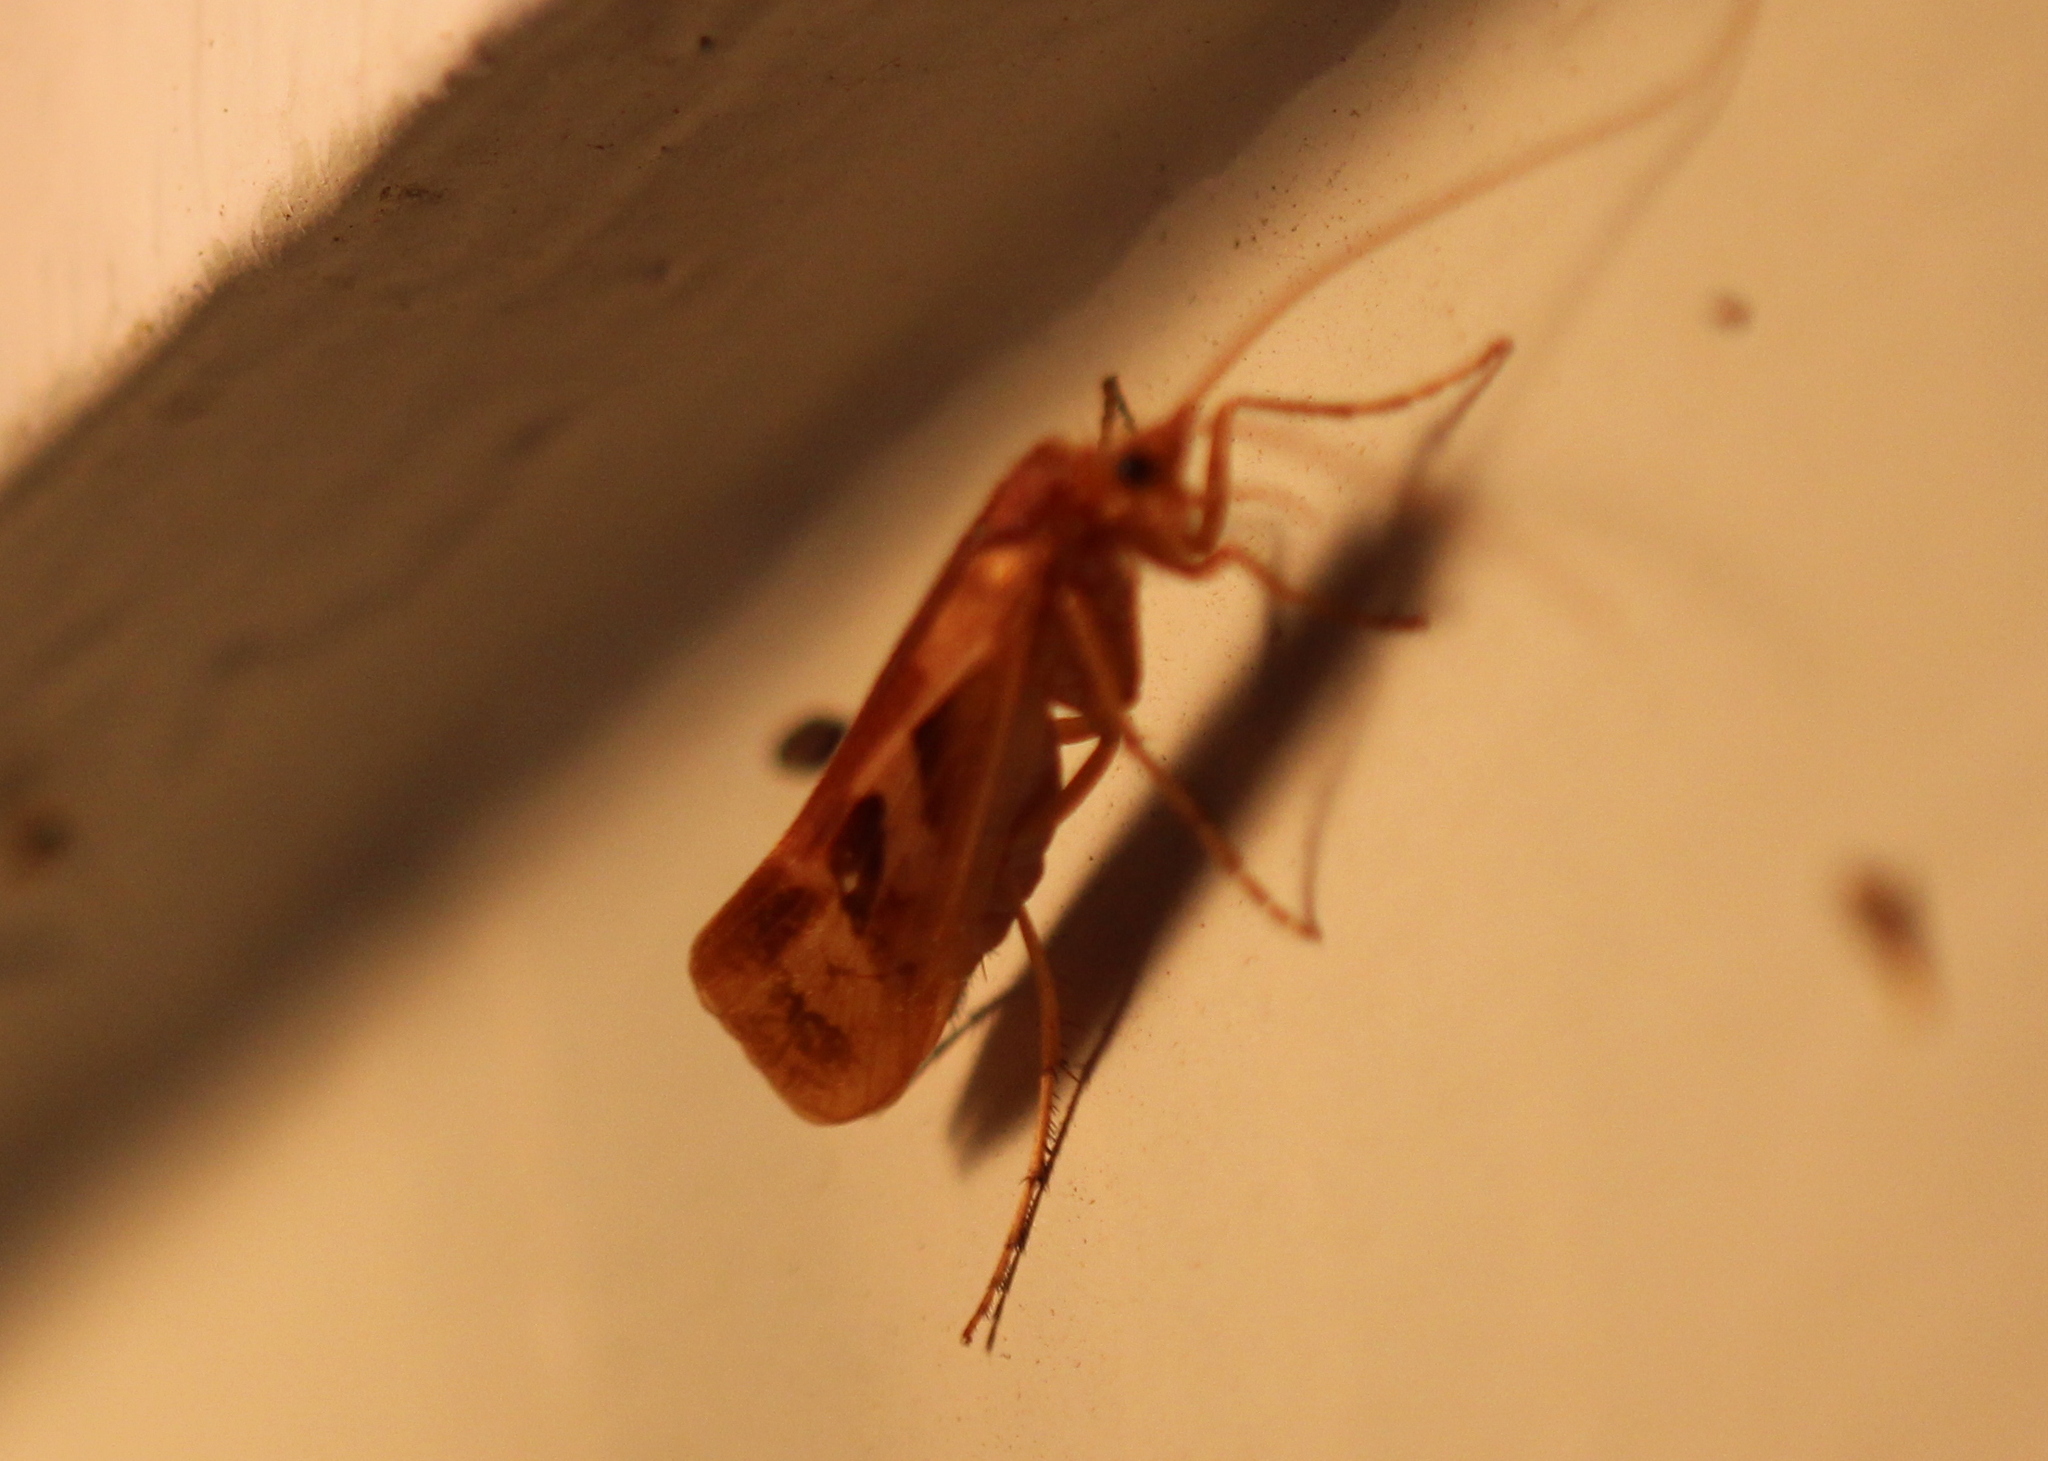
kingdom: Animalia
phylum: Arthropoda
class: Insecta
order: Trichoptera
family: Limnephilidae
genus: Limnephilus
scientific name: Limnephilus rhombicus
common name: Diamond northern caddisfly
